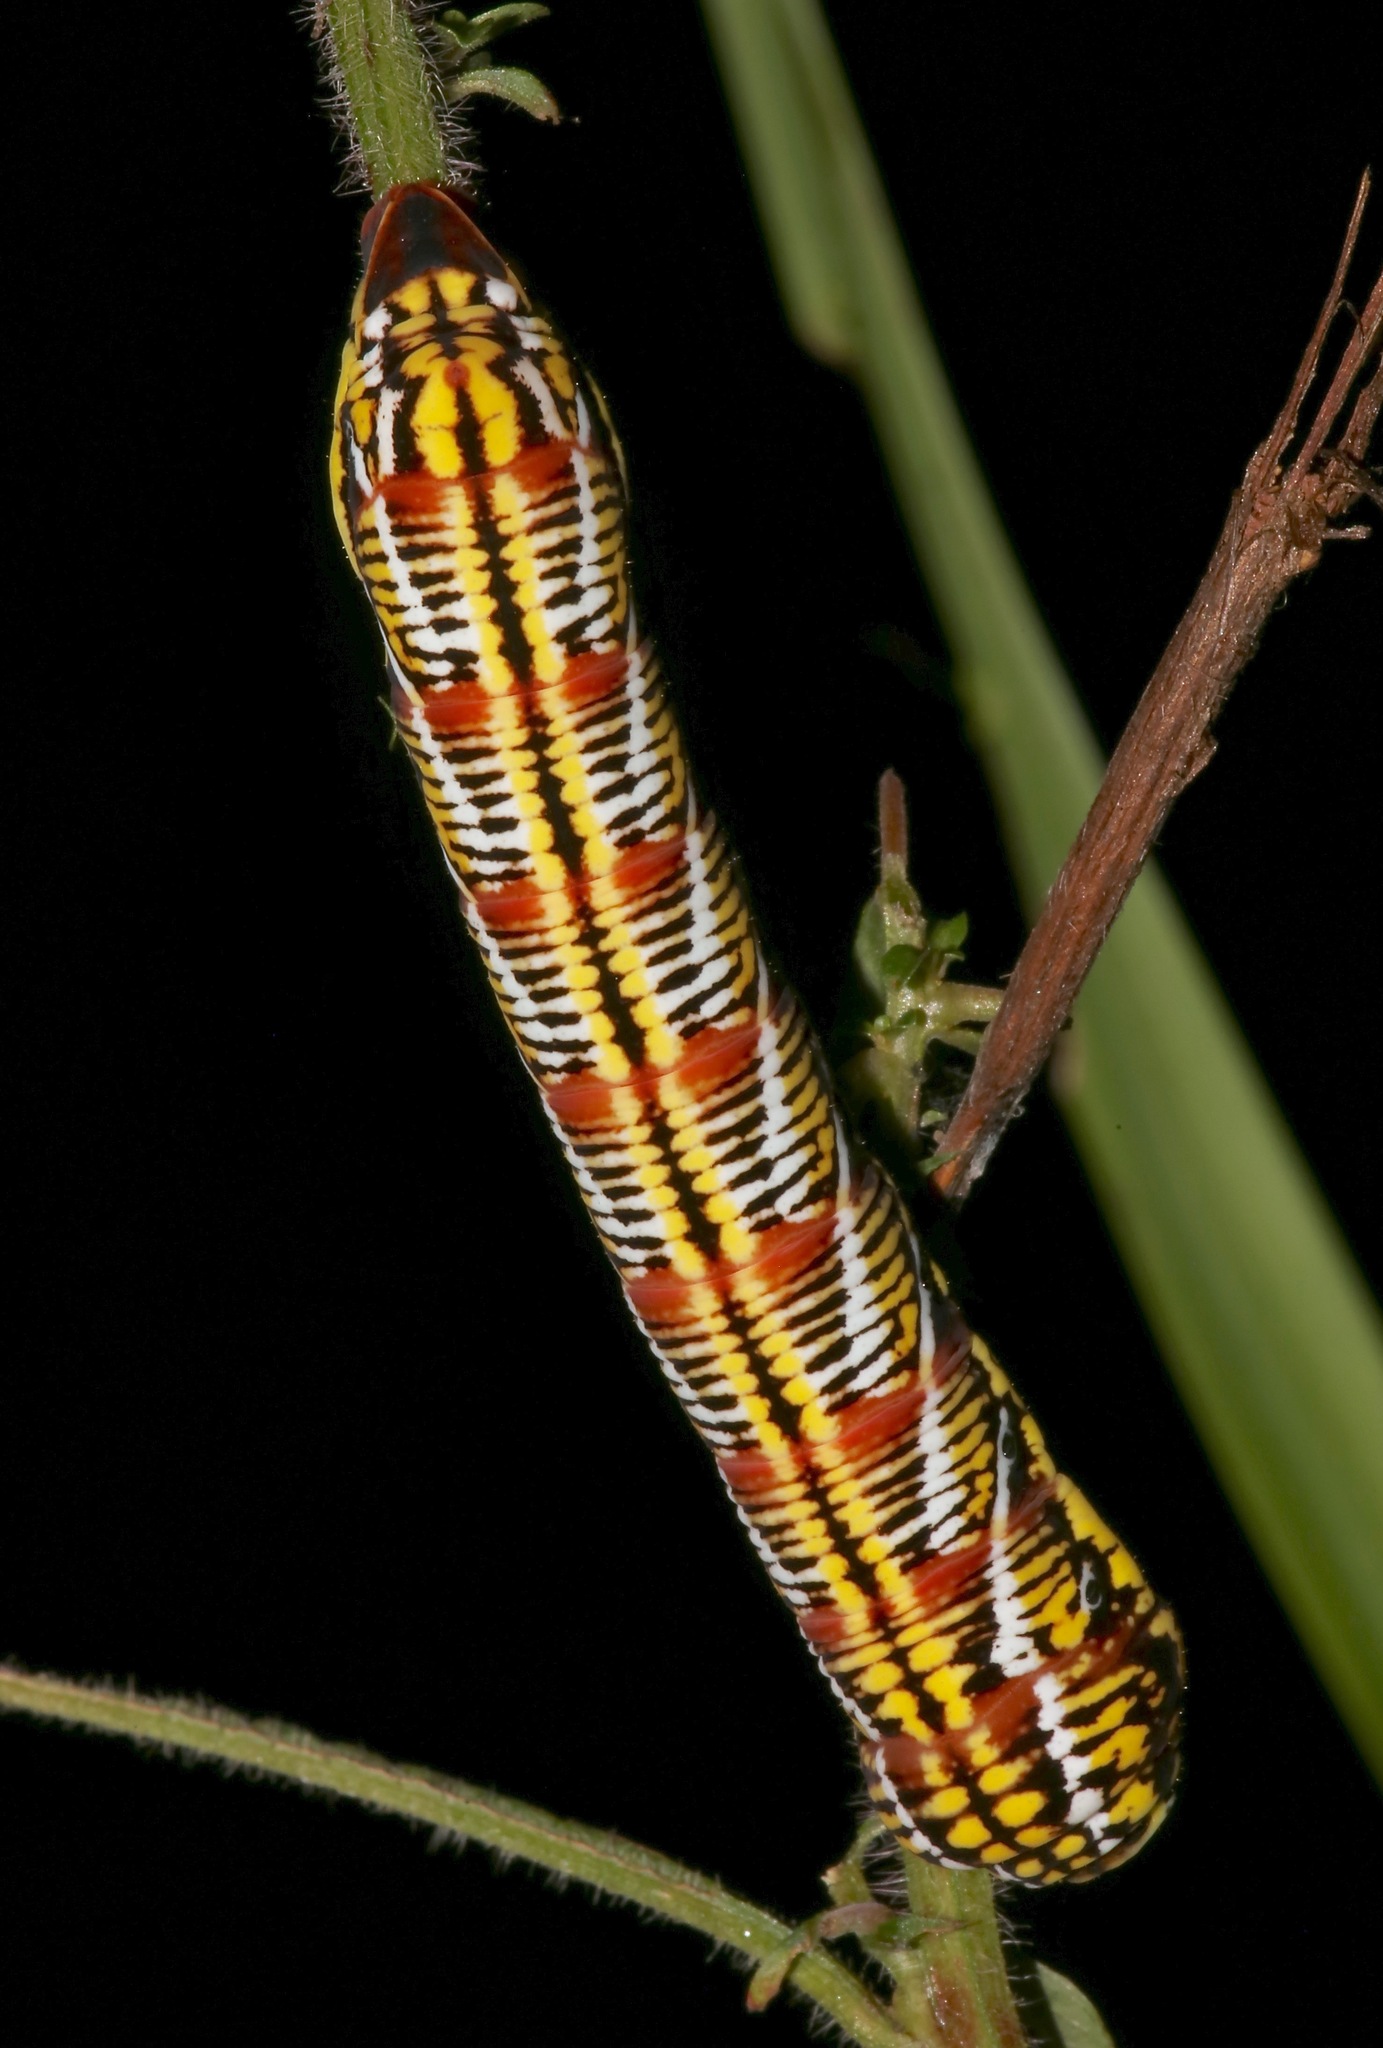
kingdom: Animalia
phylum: Arthropoda
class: Insecta
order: Lepidoptera
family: Sphingidae
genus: Eumorpha
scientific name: Eumorpha fasciatus
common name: Banded sphinx
